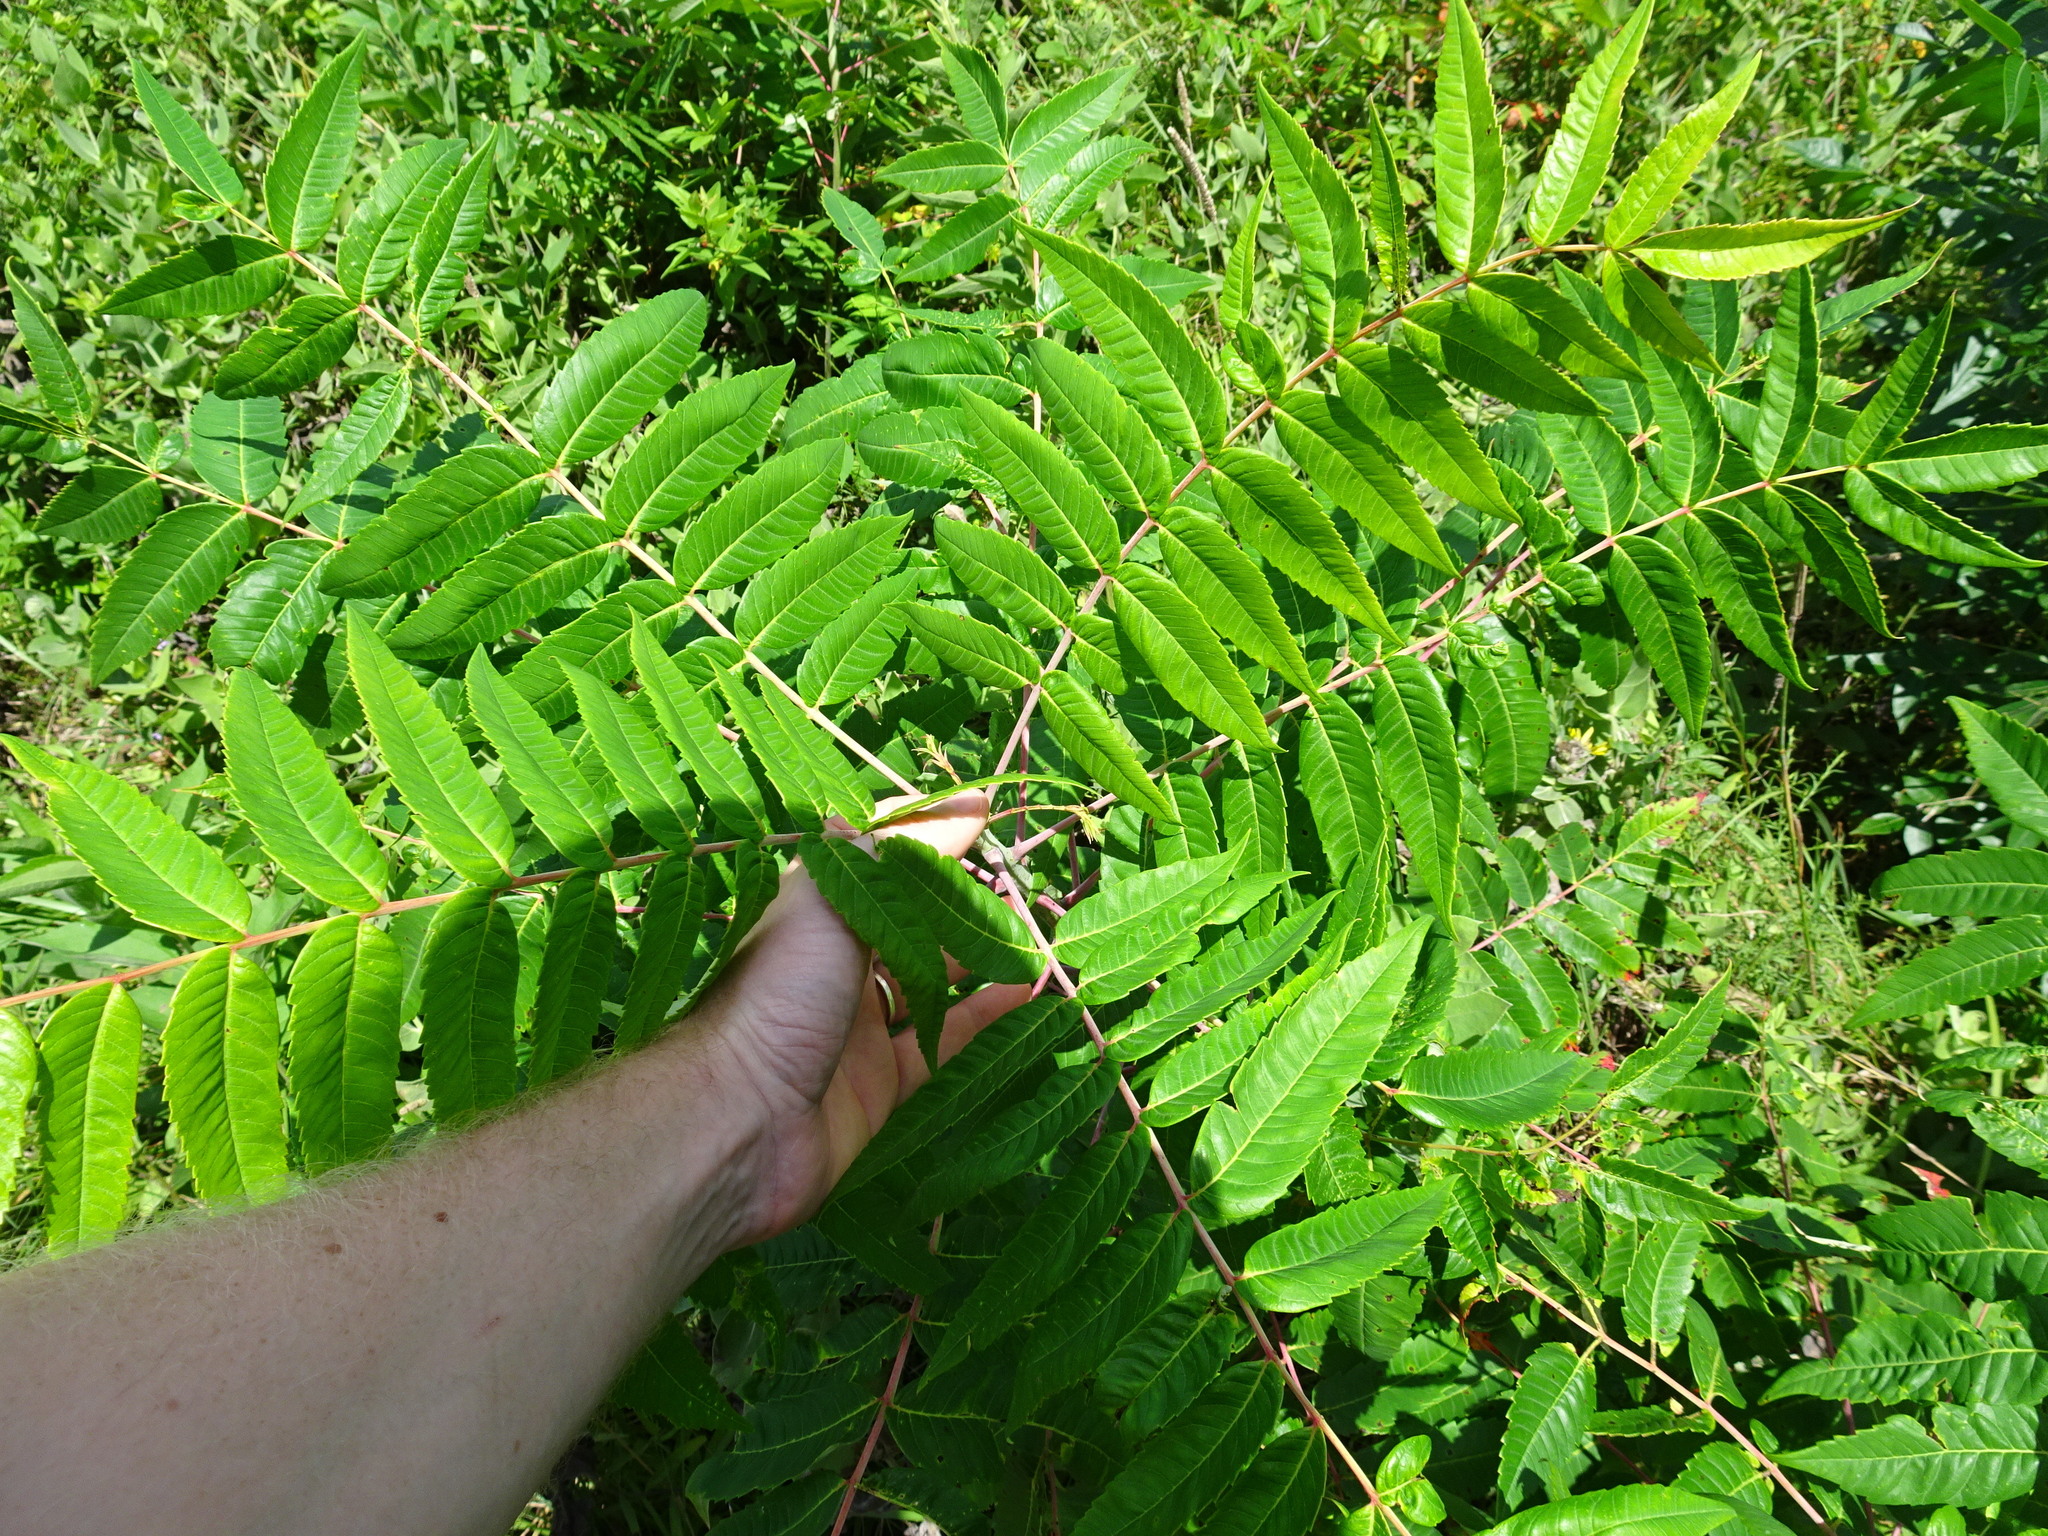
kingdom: Plantae
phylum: Tracheophyta
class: Magnoliopsida
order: Sapindales
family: Anacardiaceae
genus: Rhus
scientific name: Rhus glabra
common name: Scarlet sumac
